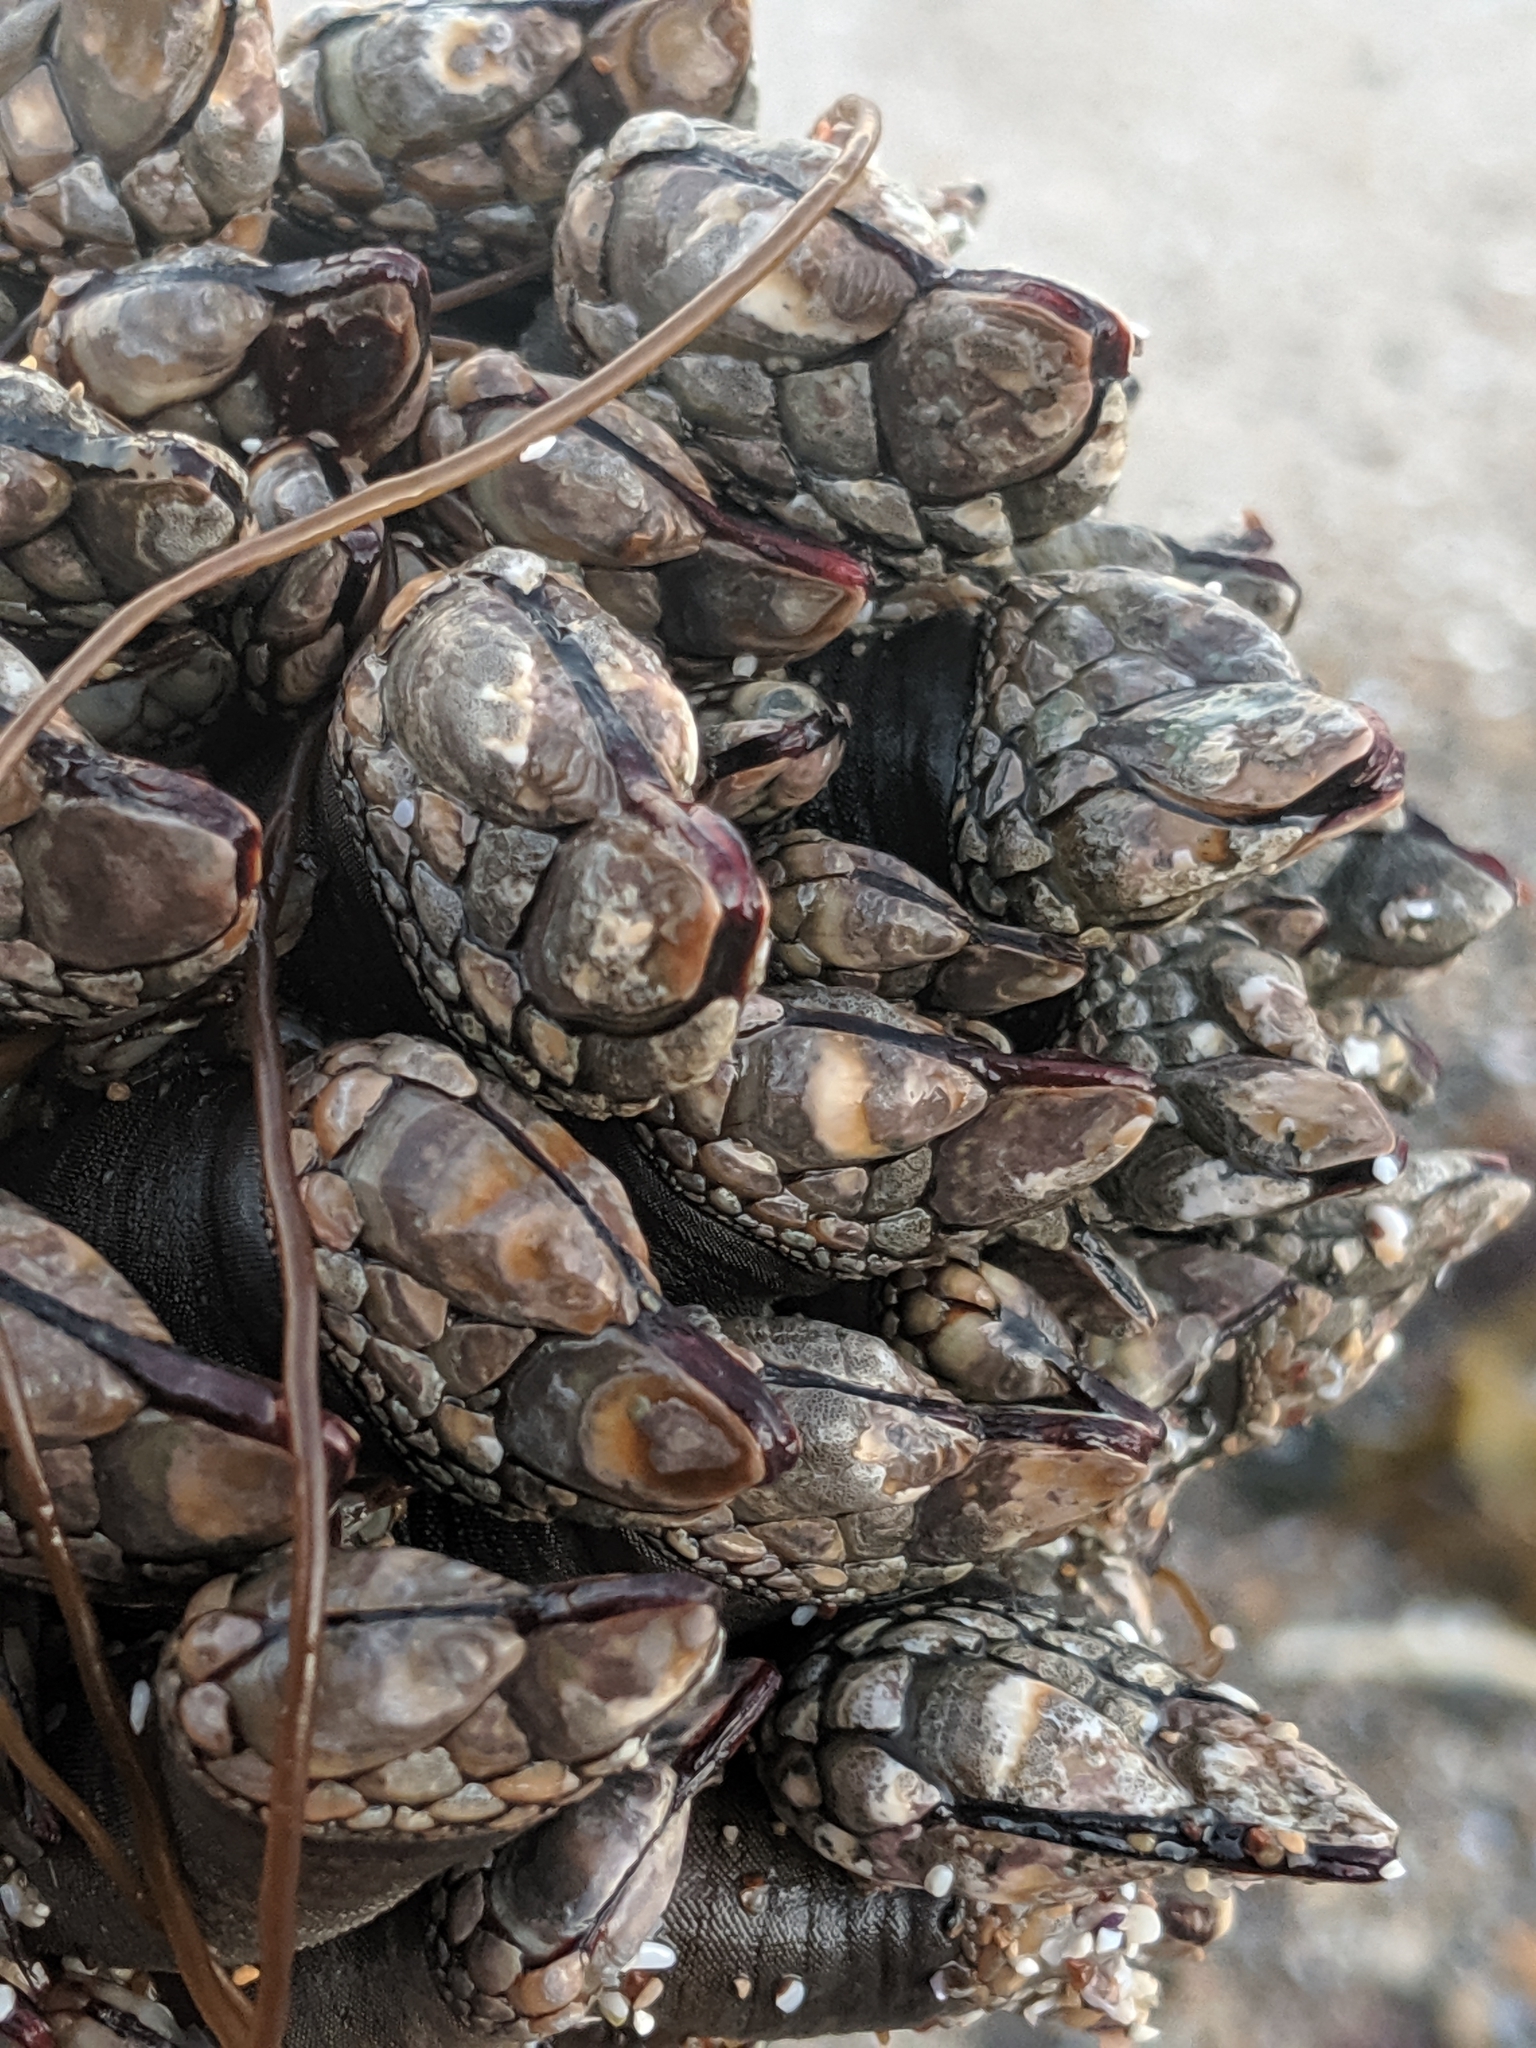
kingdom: Animalia
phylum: Arthropoda
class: Maxillopoda
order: Pedunculata
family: Pollicipedidae
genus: Pollicipes
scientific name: Pollicipes polymerus
